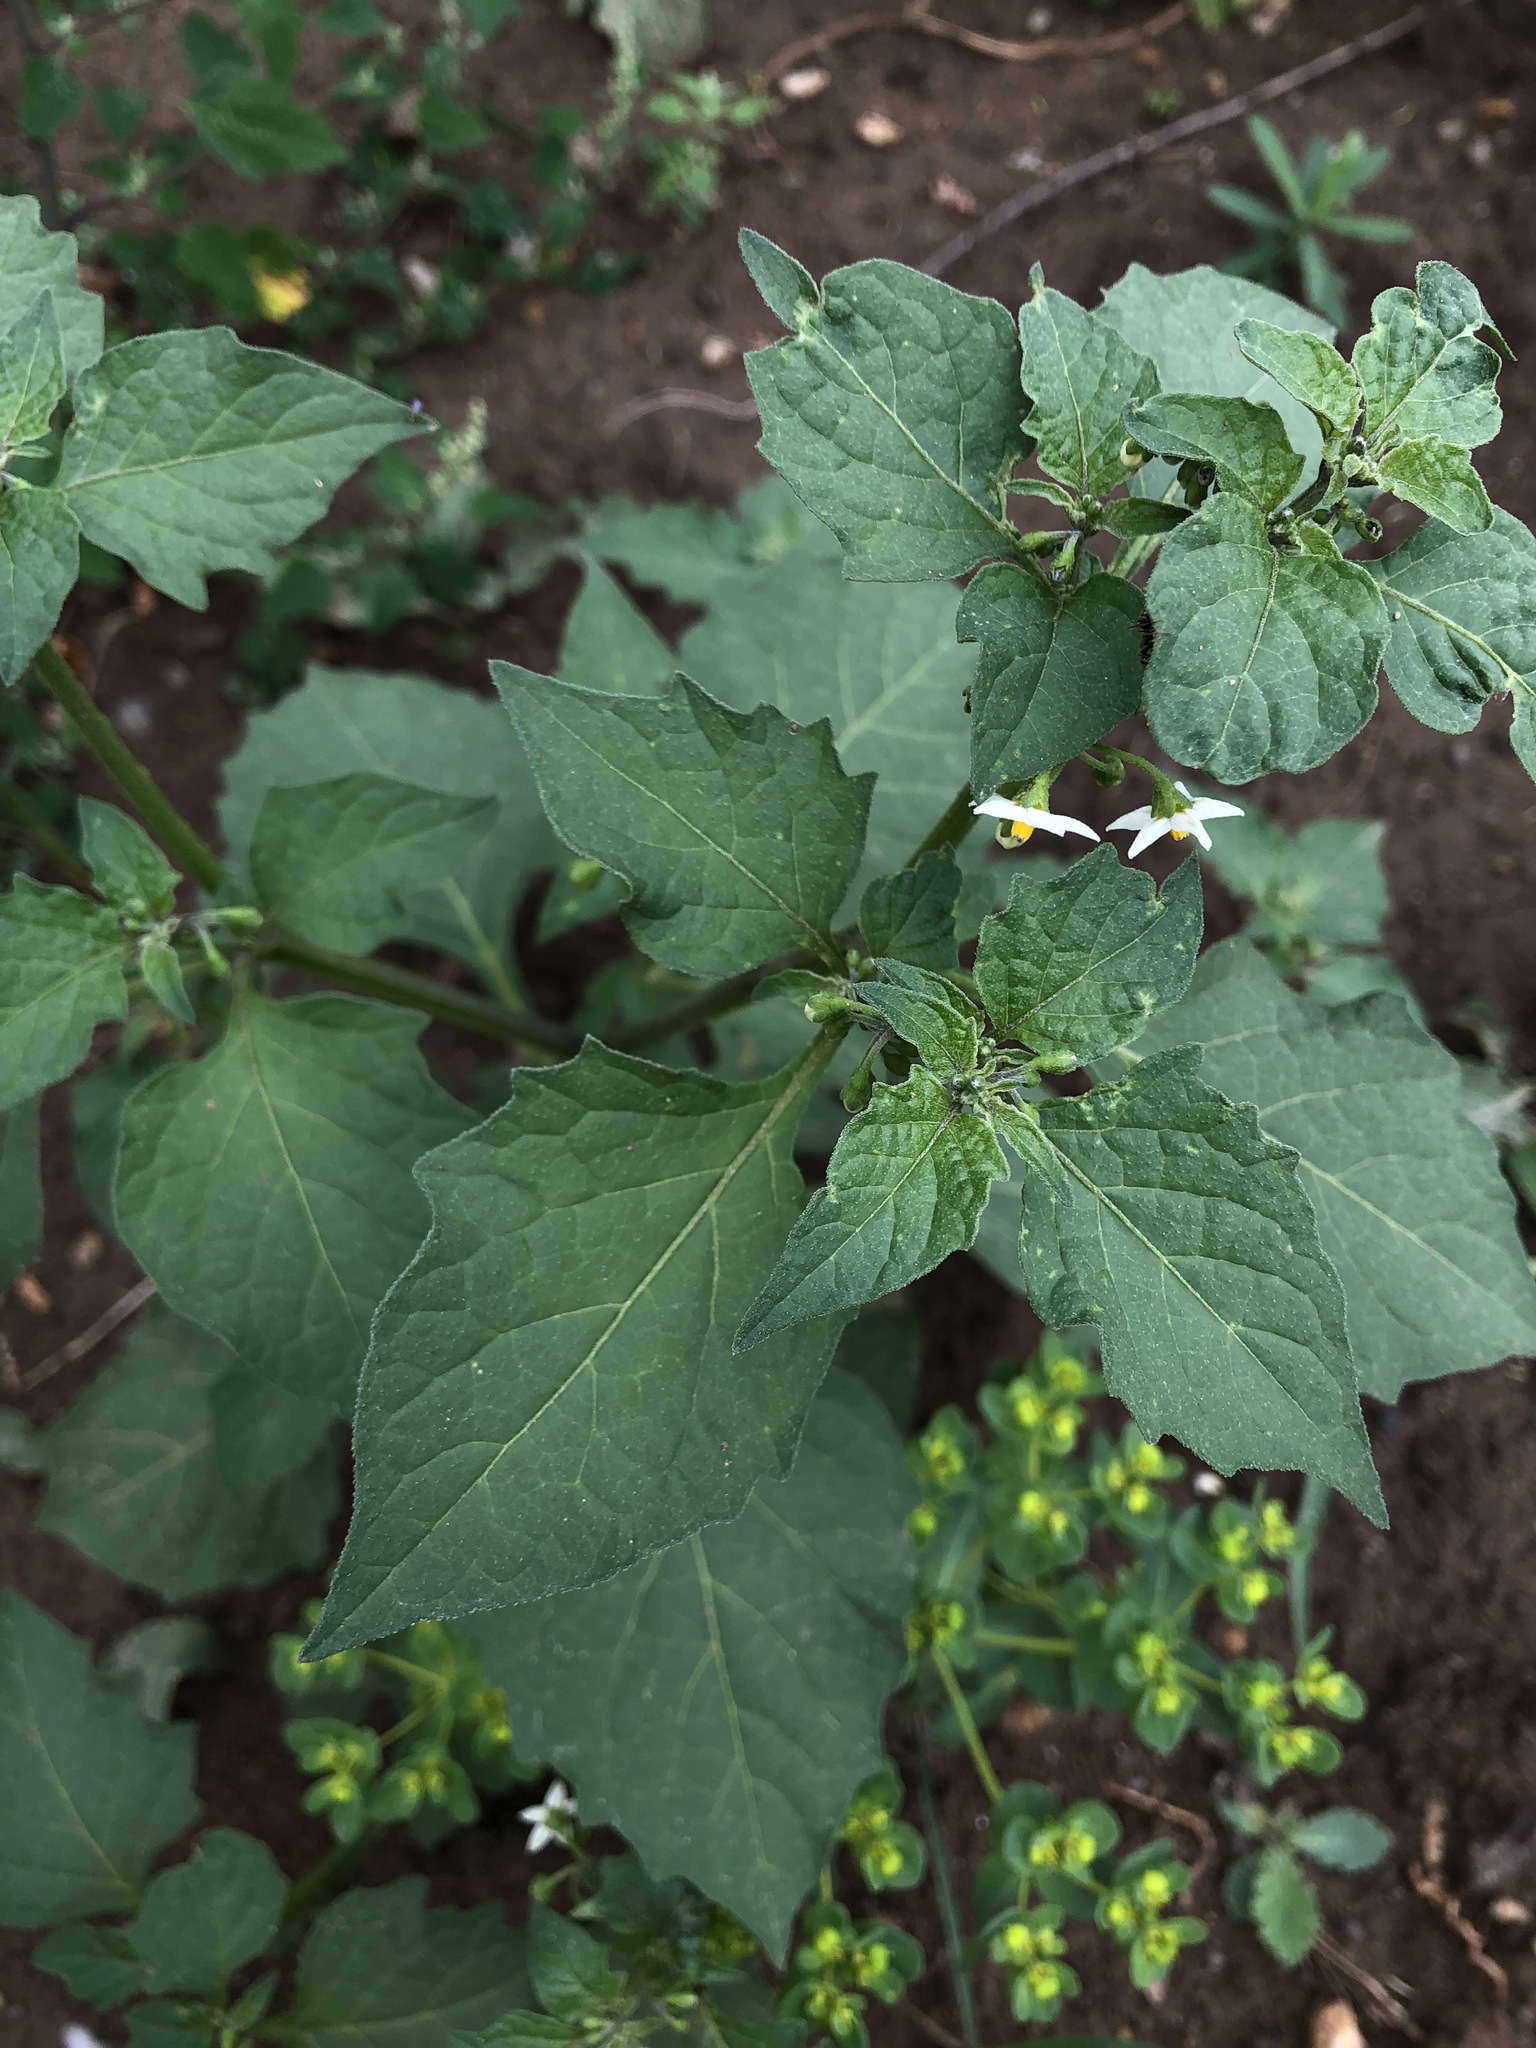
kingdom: Plantae
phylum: Tracheophyta
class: Magnoliopsida
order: Solanales
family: Solanaceae
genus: Solanum
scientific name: Solanum nigrum
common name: Black nightshade
